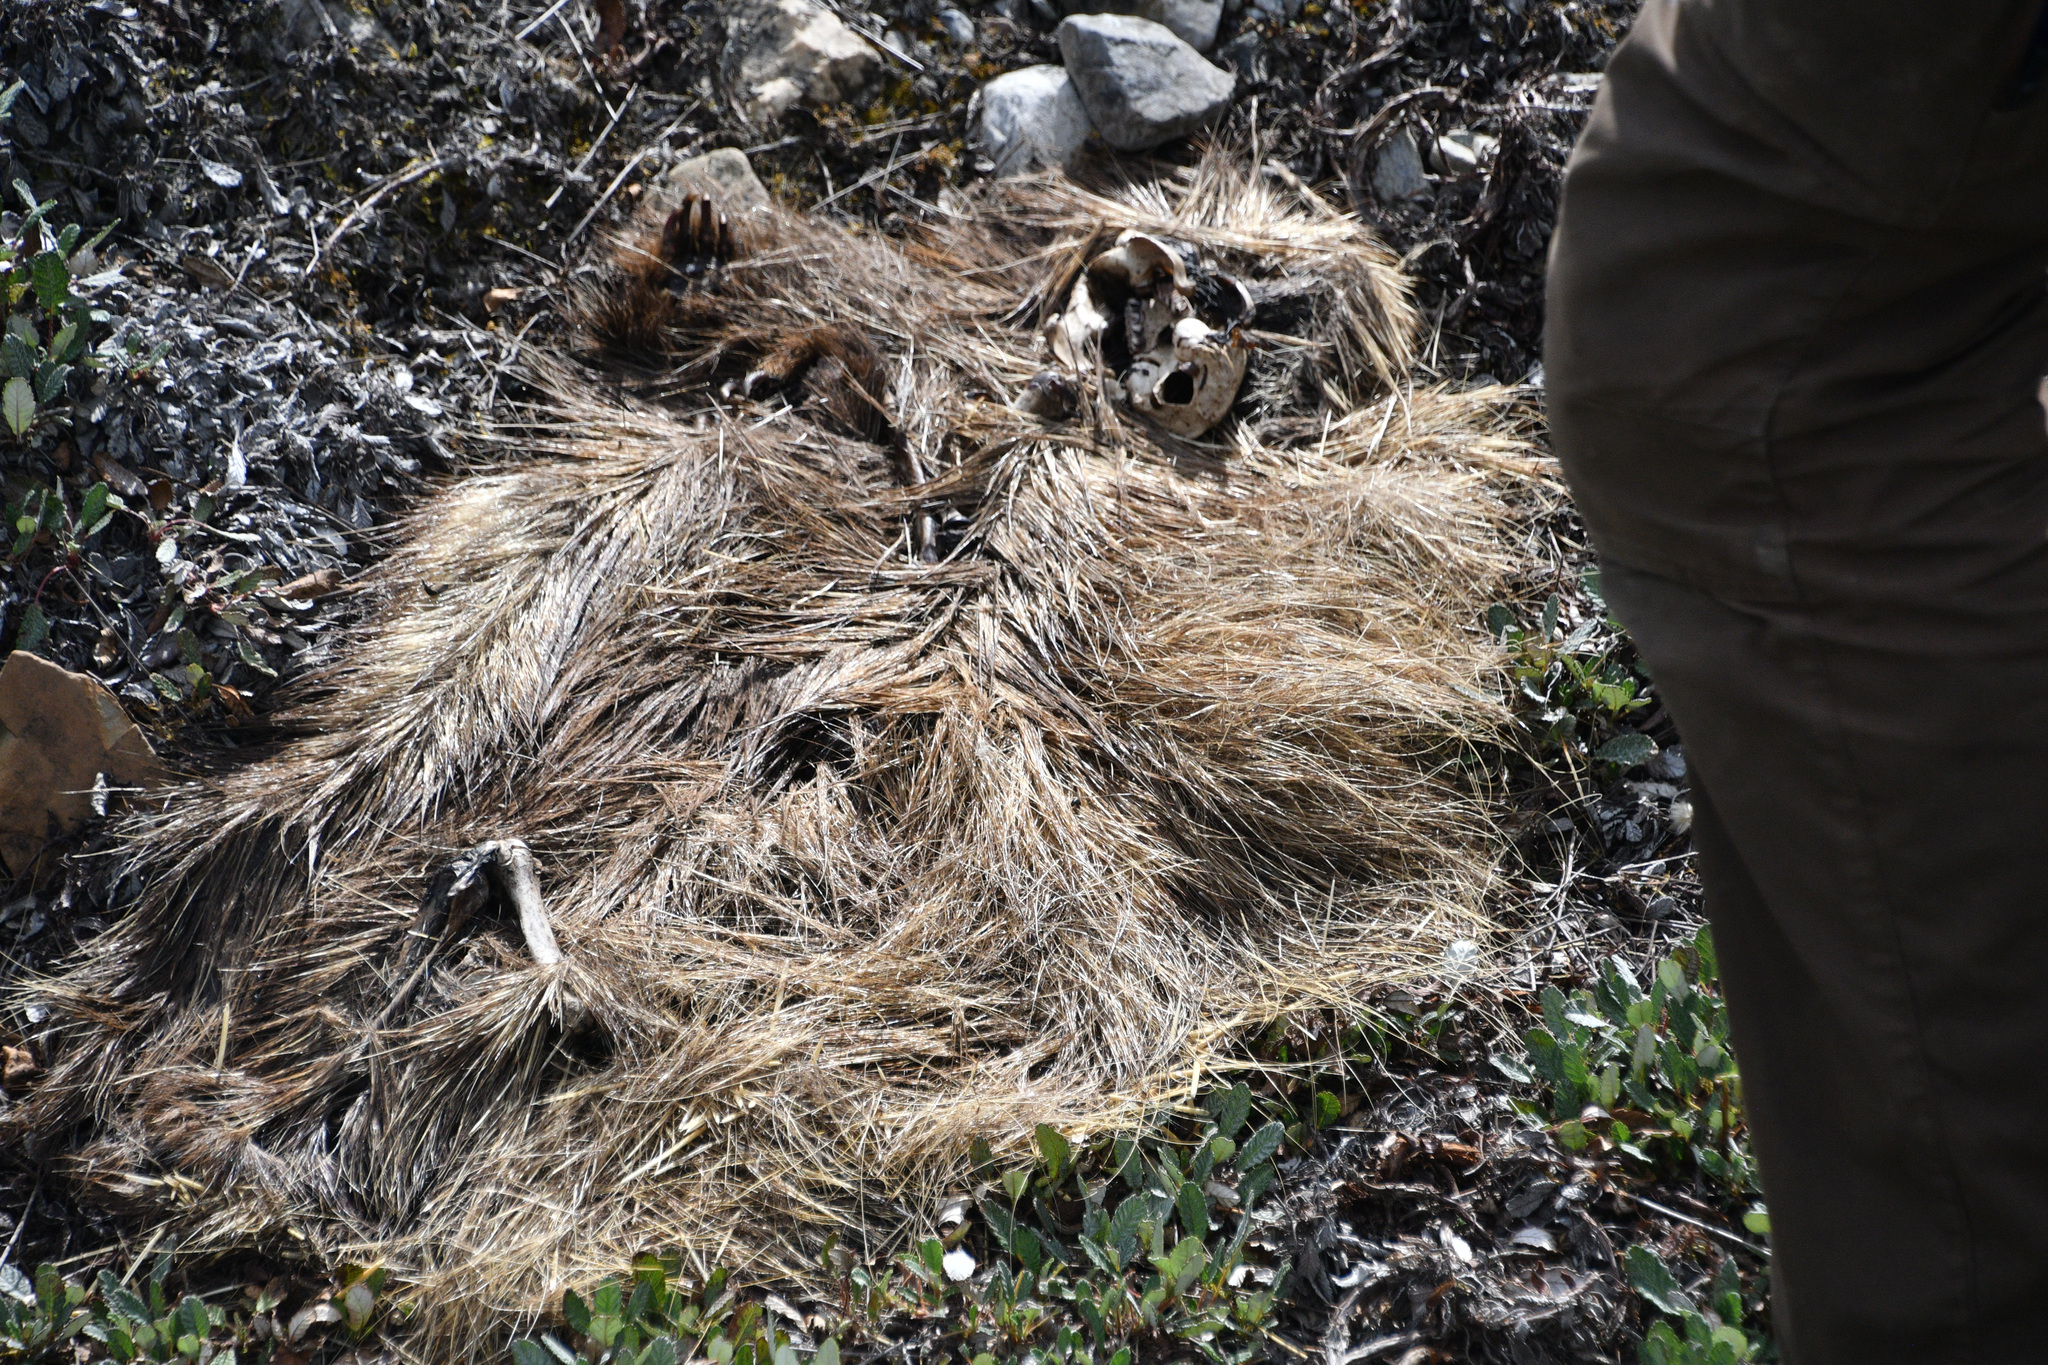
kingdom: Animalia
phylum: Chordata
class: Mammalia
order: Rodentia
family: Erethizontidae
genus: Erethizon
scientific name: Erethizon dorsatus
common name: North american porcupine
